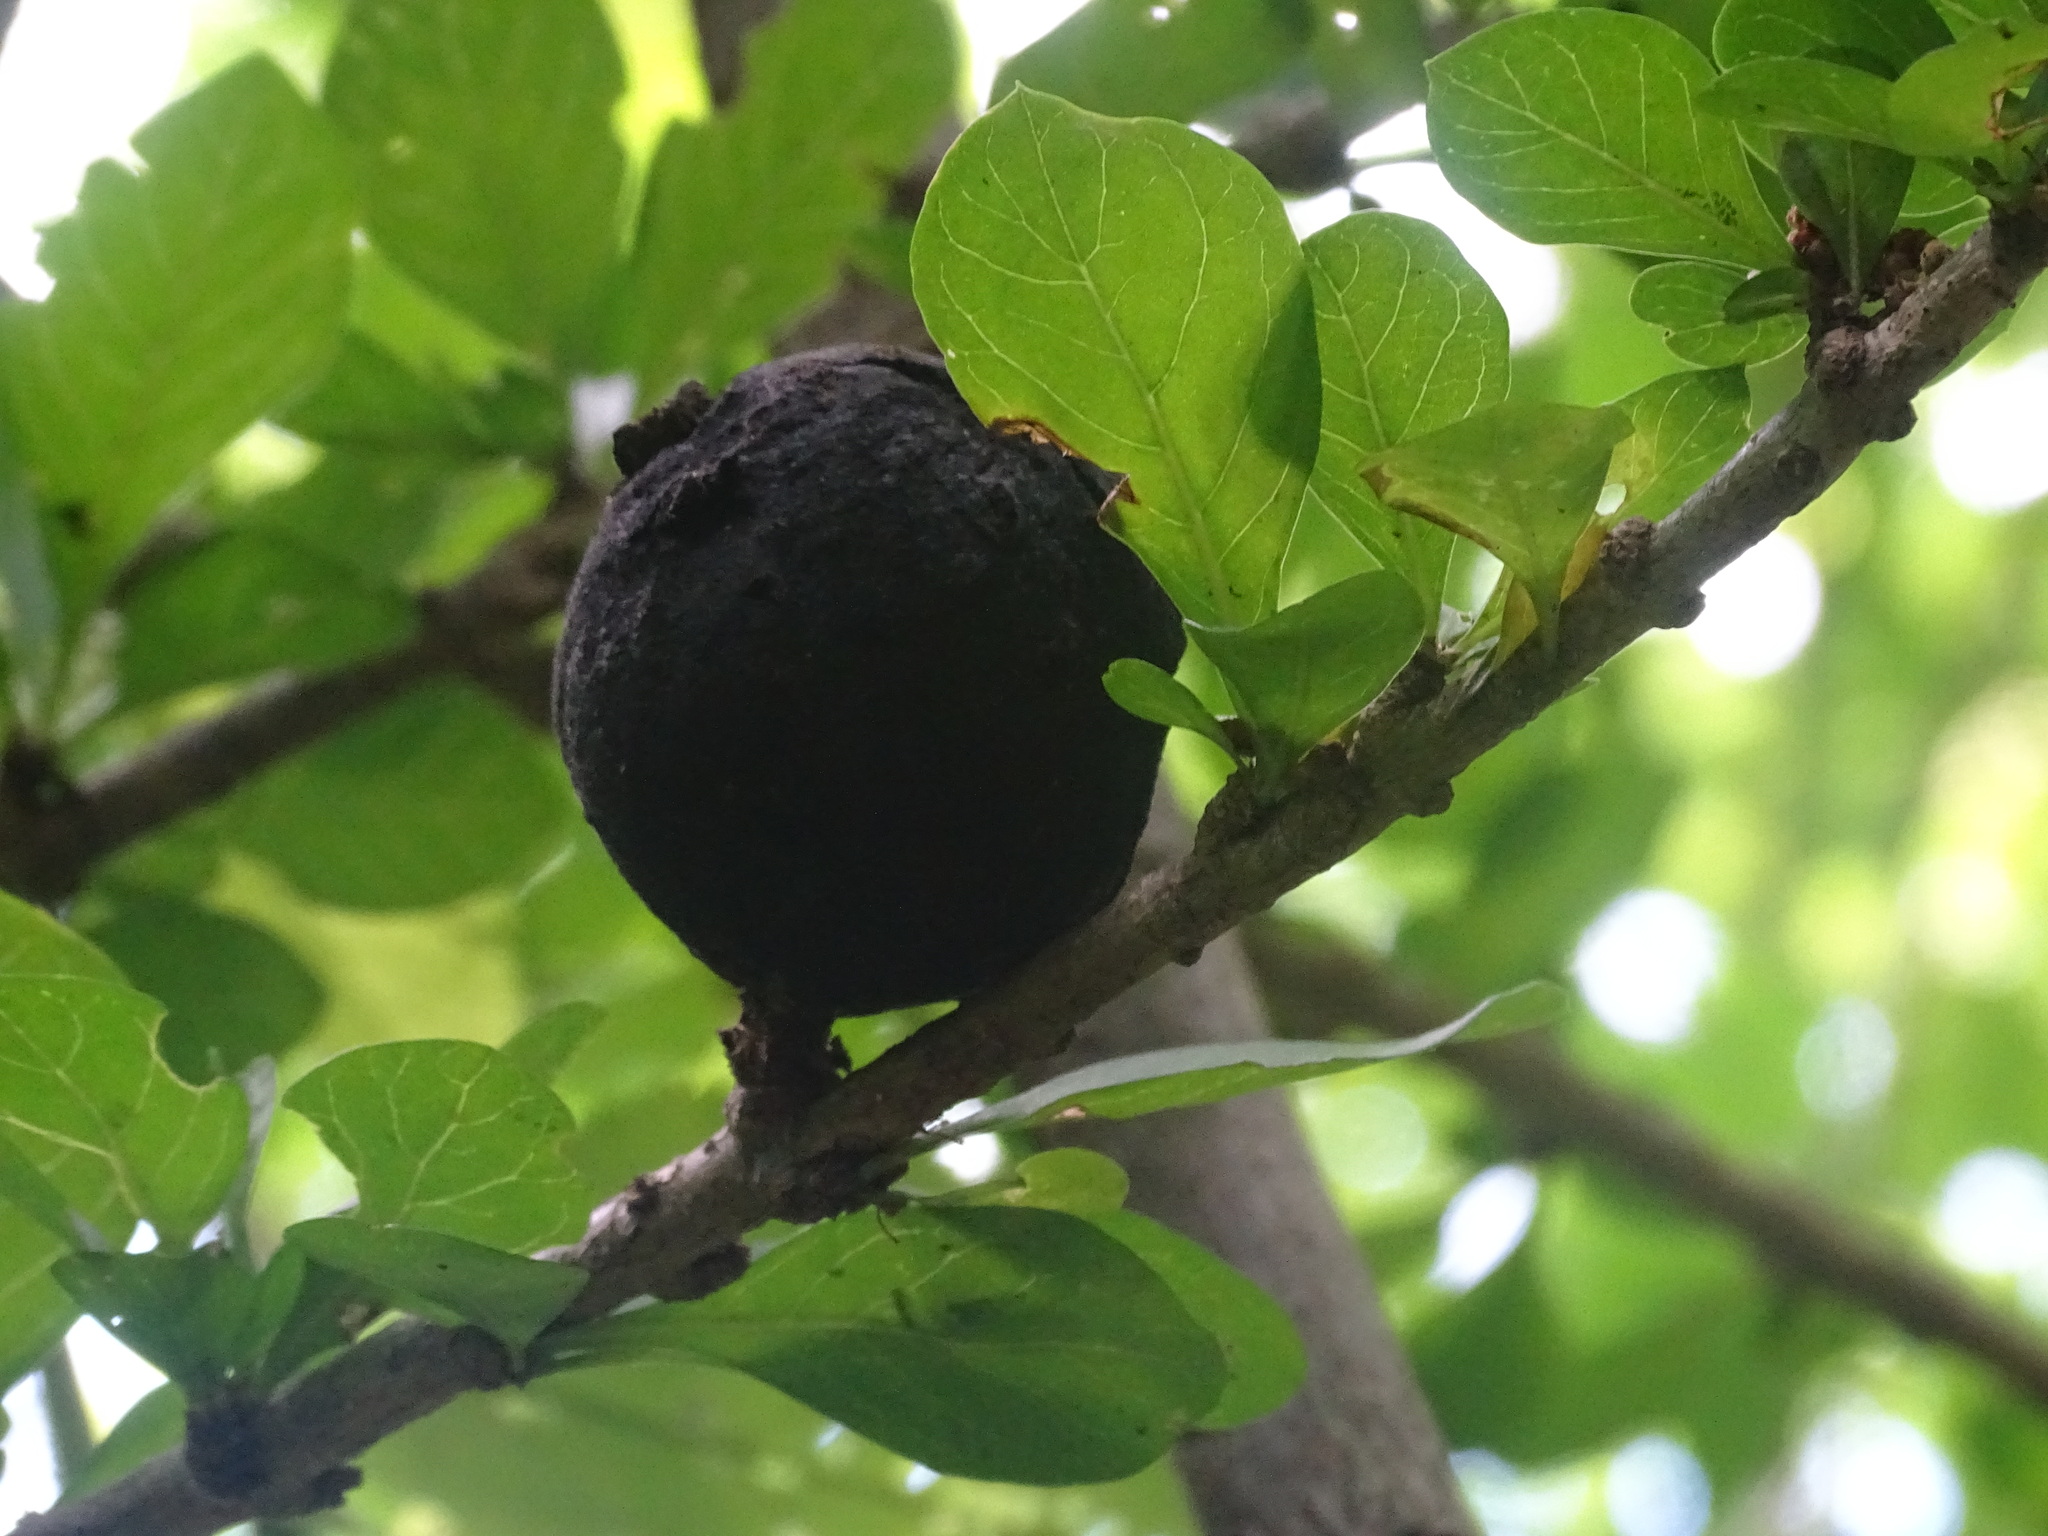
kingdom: Plantae
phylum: Tracheophyta
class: Magnoliopsida
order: Gentianales
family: Rubiaceae
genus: Randia
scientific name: Randia aculeata
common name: Inkberry
